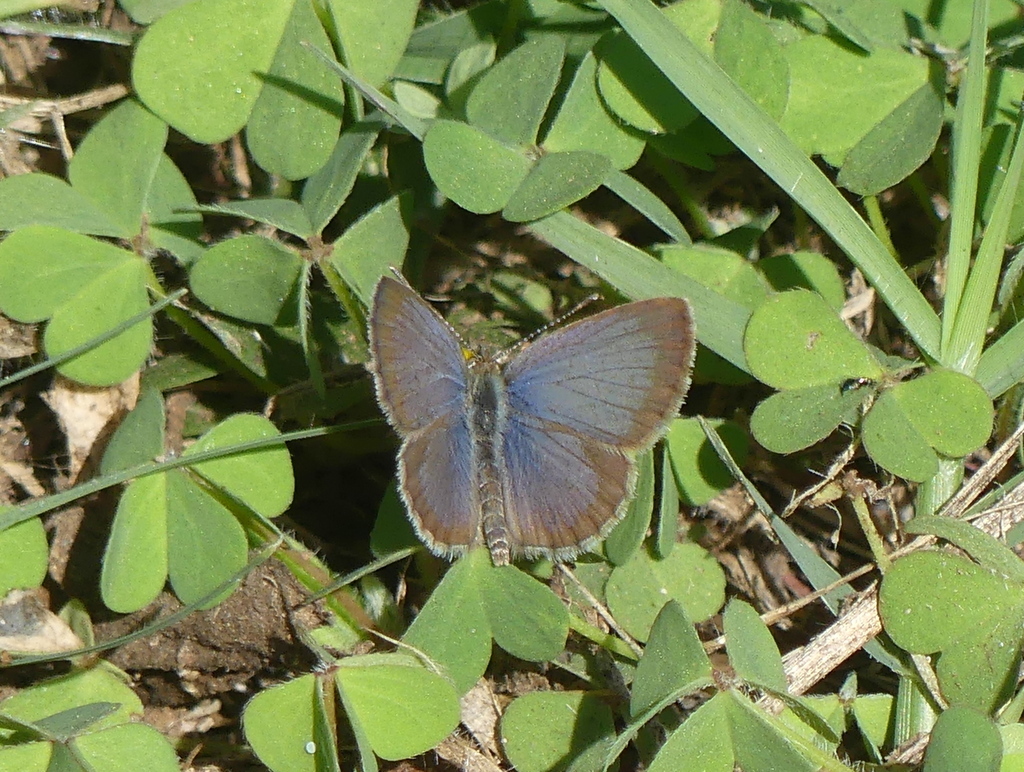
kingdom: Animalia
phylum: Arthropoda
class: Insecta
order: Lepidoptera
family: Lycaenidae
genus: Zizeeria
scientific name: Zizeeria knysna
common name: African grass blue
